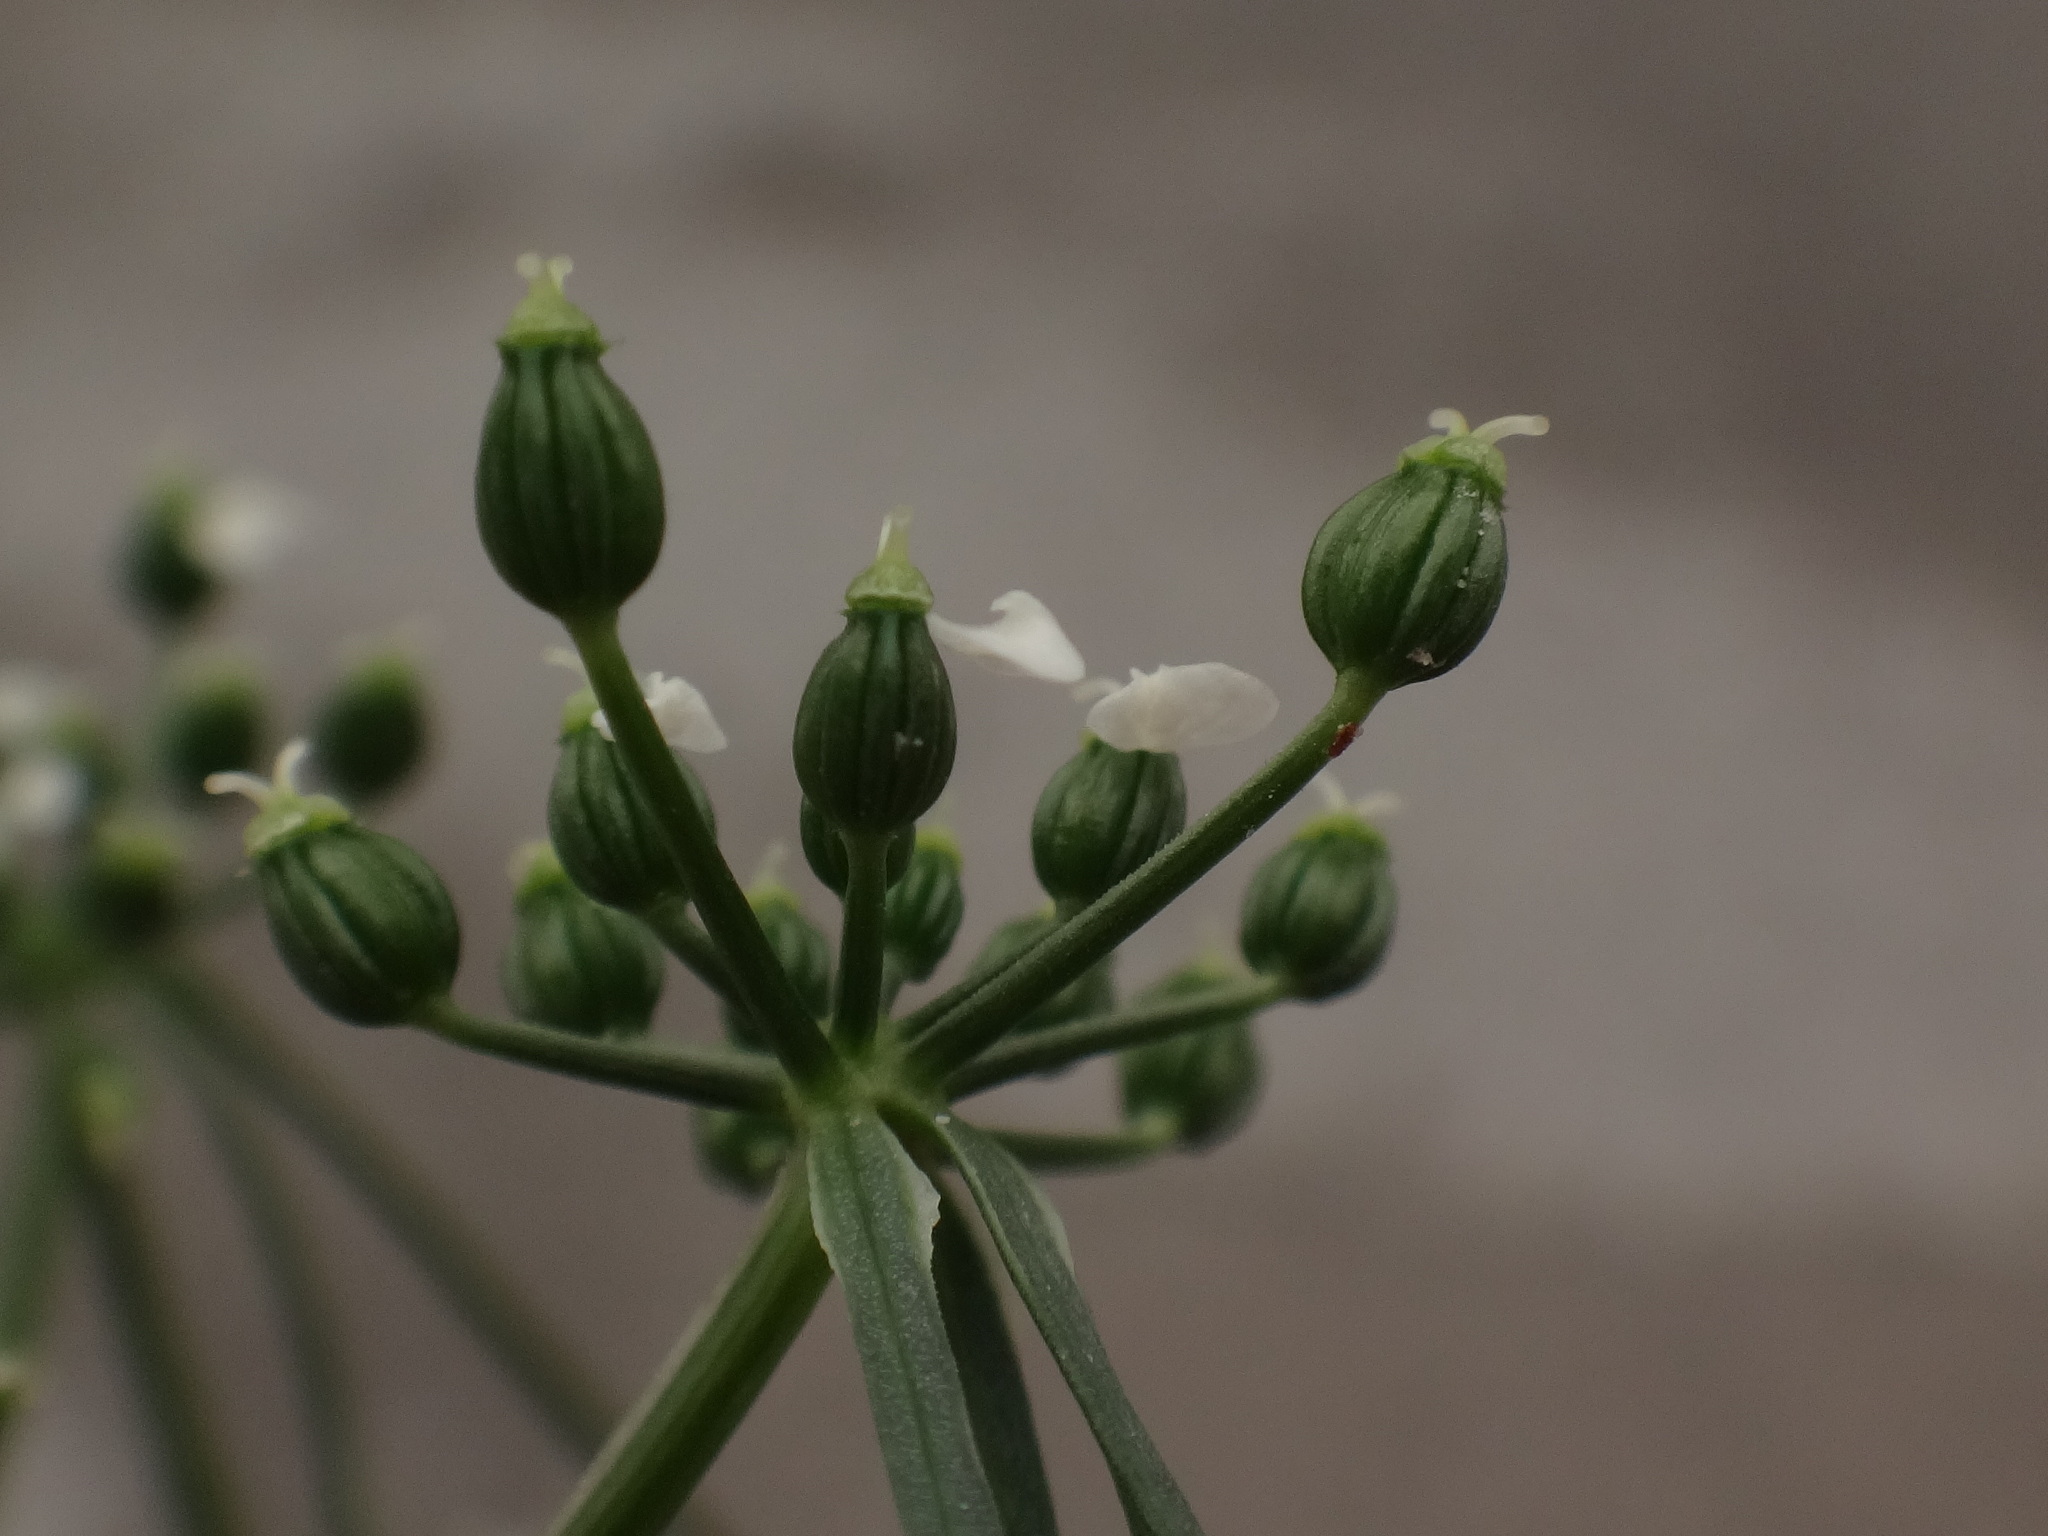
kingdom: Plantae
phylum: Tracheophyta
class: Magnoliopsida
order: Apiales
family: Apiaceae
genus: Aethusa
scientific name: Aethusa cynapium
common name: Fool's parsley
